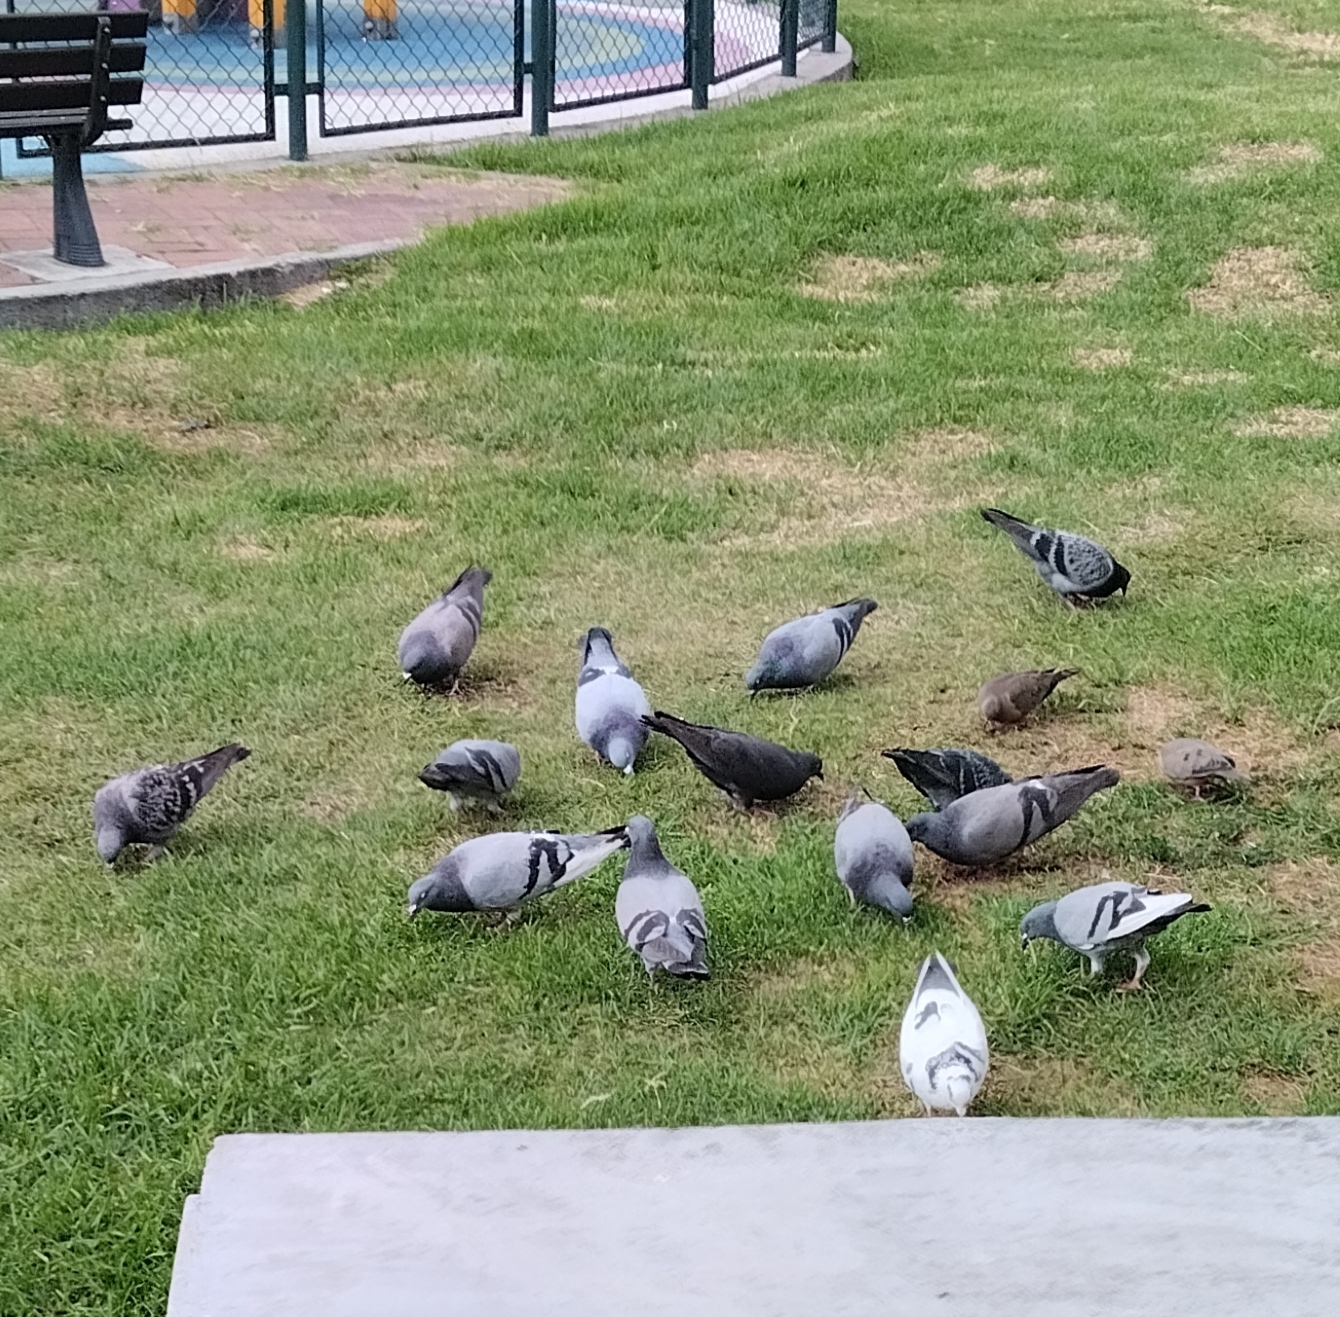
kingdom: Animalia
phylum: Chordata
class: Aves
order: Columbiformes
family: Columbidae
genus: Columba
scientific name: Columba livia
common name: Rock pigeon
